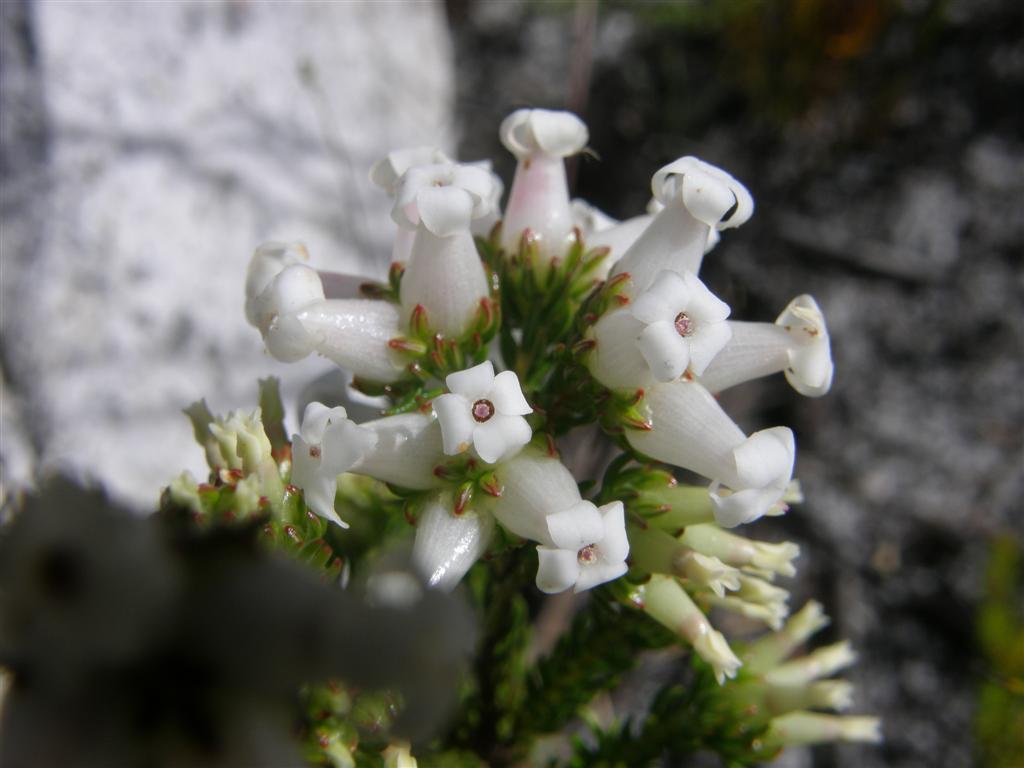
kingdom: Plantae
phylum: Tracheophyta
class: Magnoliopsida
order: Ericales
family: Ericaceae
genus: Erica
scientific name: Erica denticulata
